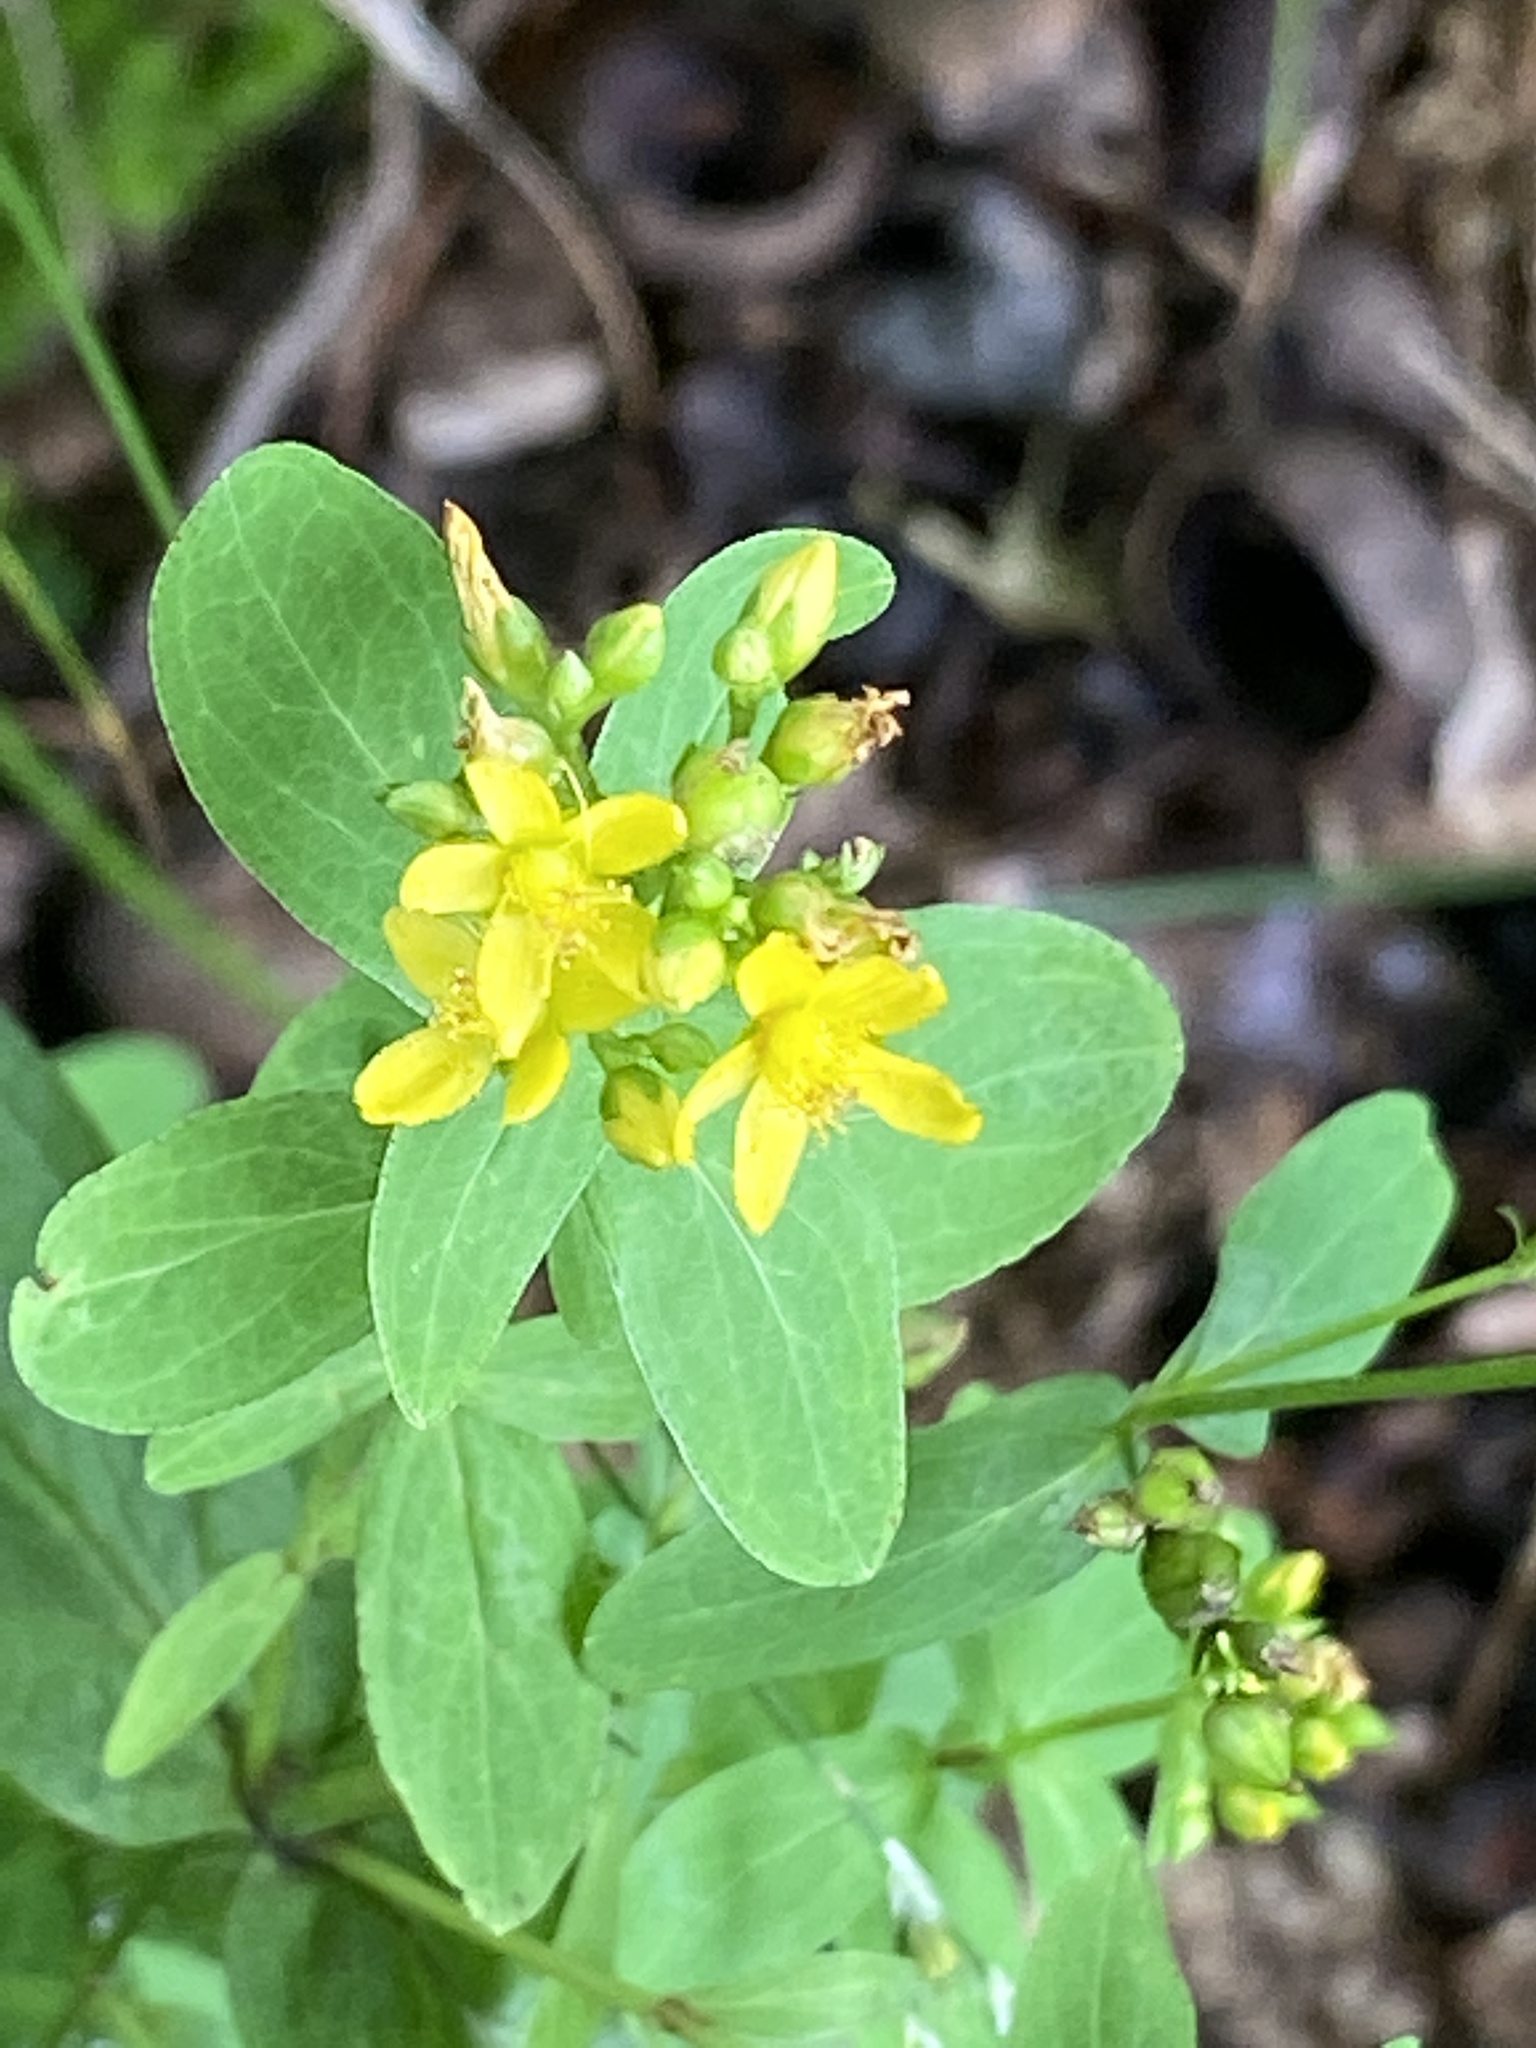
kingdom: Plantae
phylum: Tracheophyta
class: Magnoliopsida
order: Malpighiales
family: Hypericaceae
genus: Hypericum
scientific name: Hypericum punctatum
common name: Spotted st. john's-wort
